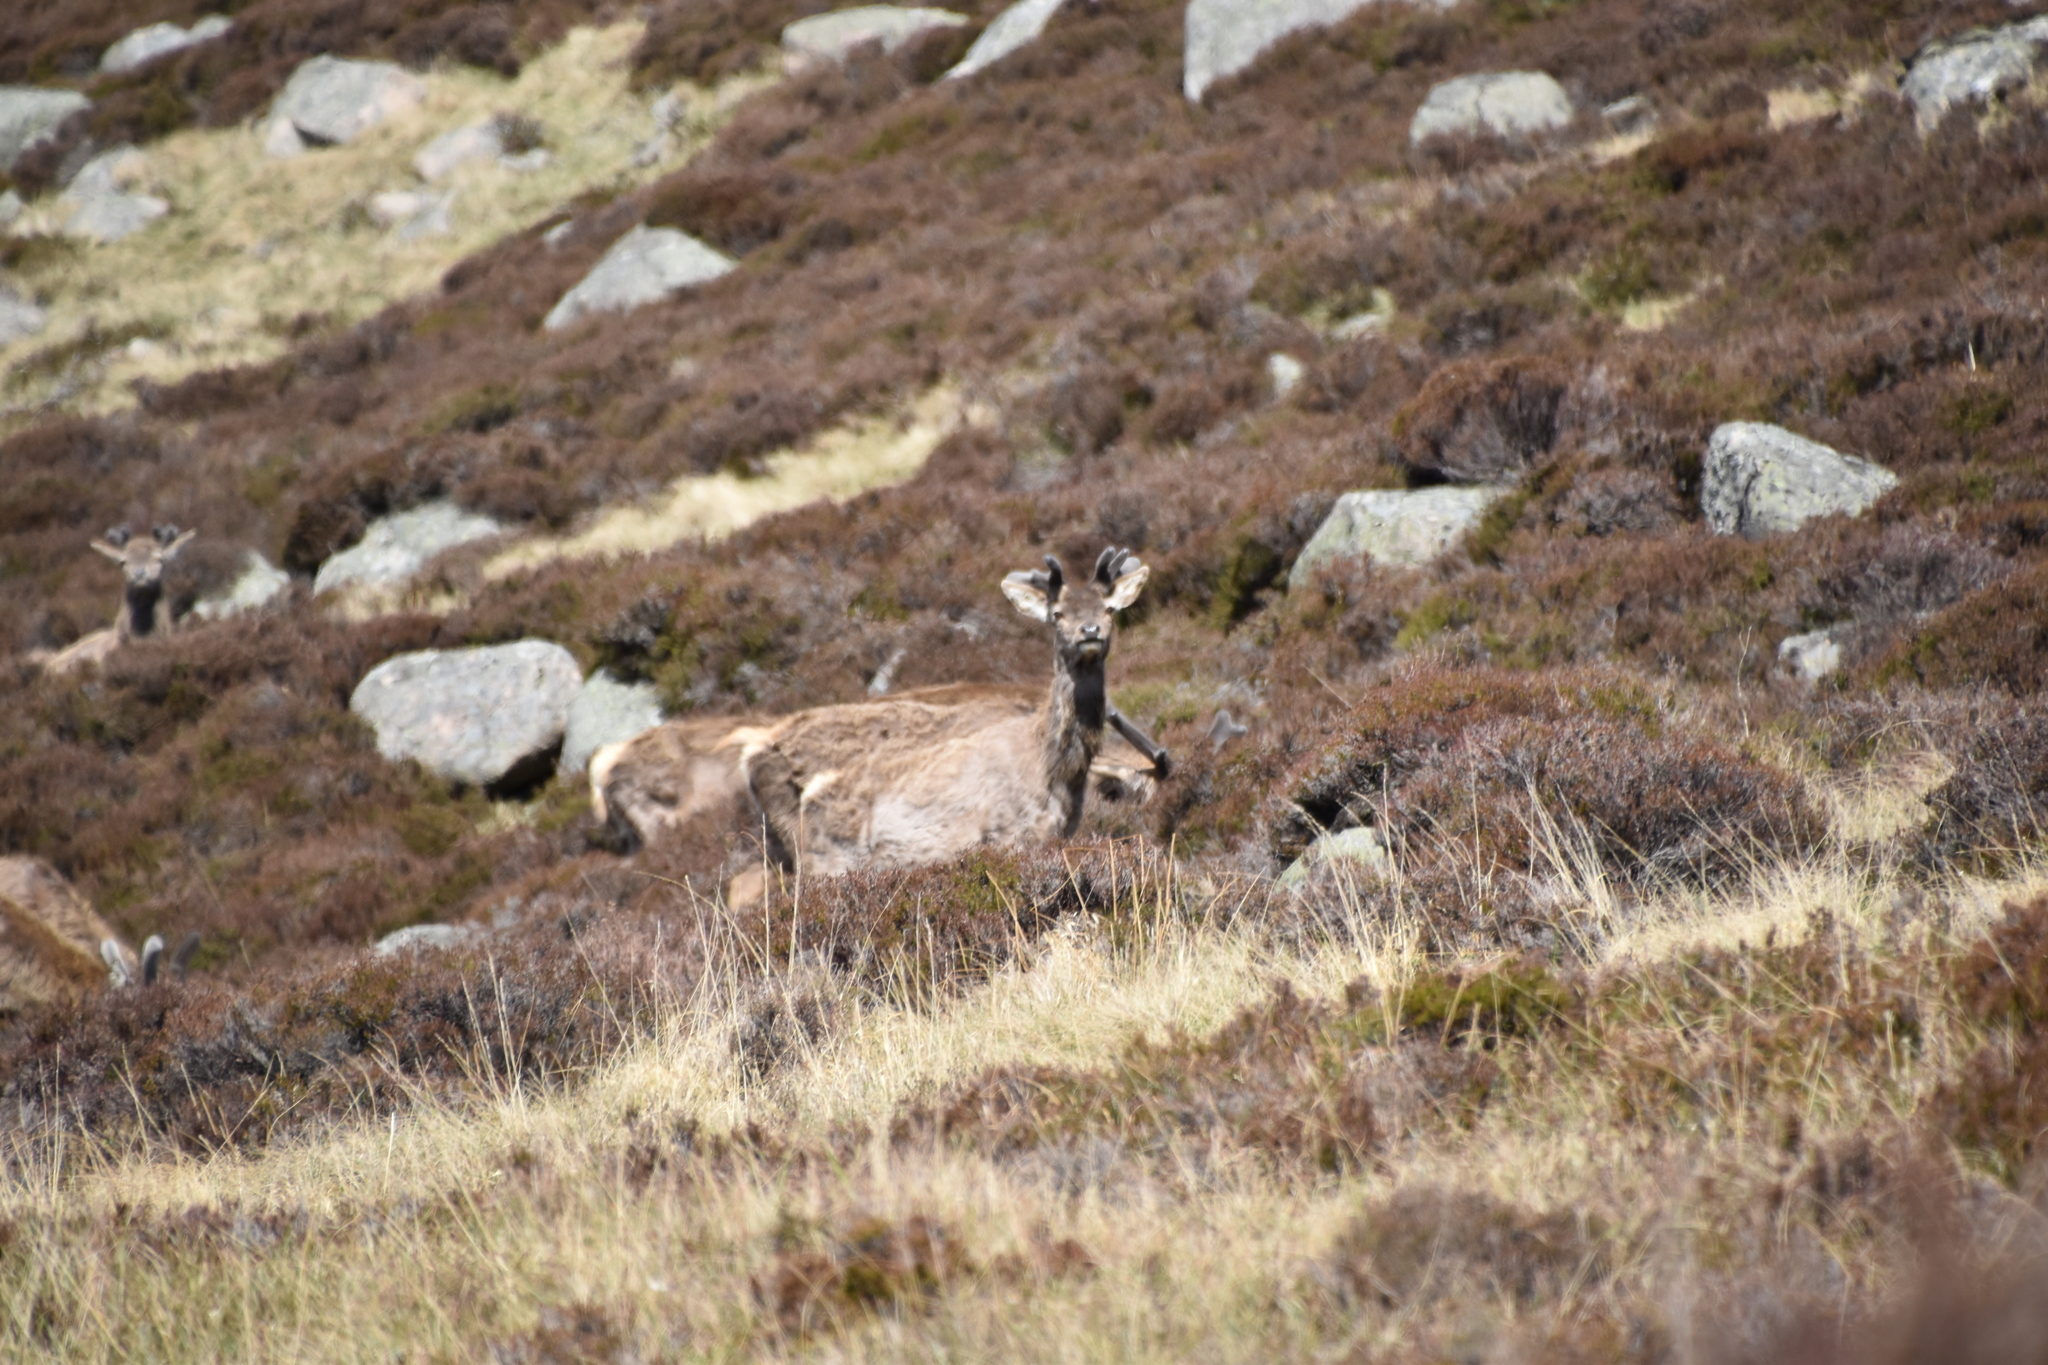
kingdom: Animalia
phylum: Chordata
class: Mammalia
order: Artiodactyla
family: Cervidae
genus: Cervus
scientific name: Cervus elaphus
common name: Red deer
